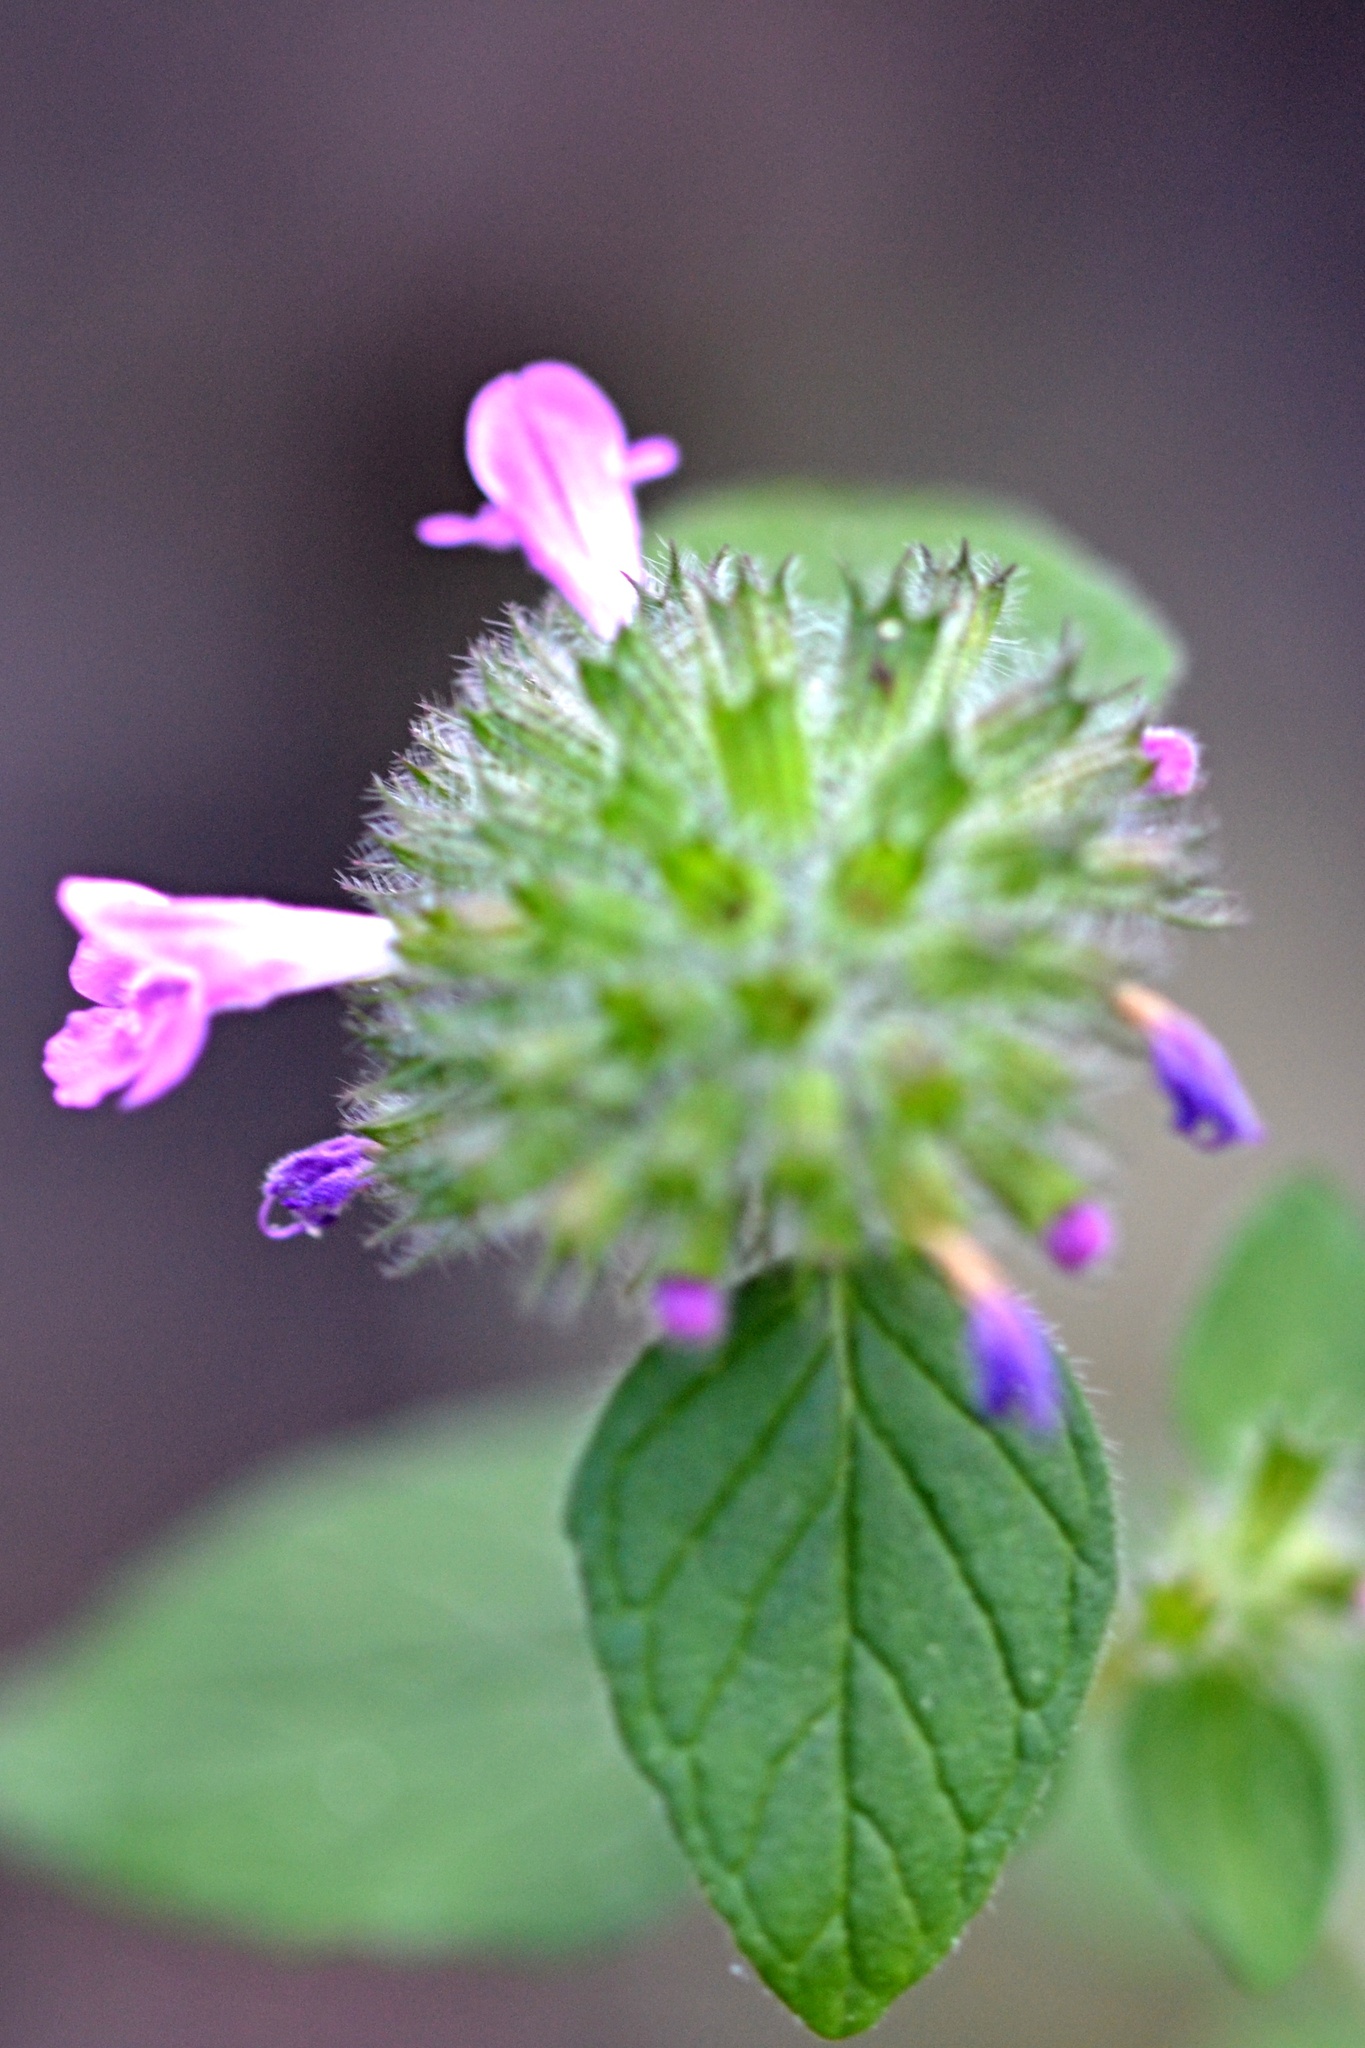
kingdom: Plantae
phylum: Tracheophyta
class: Magnoliopsida
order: Lamiales
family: Lamiaceae
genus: Clinopodium
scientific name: Clinopodium vulgare
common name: Wild basil
